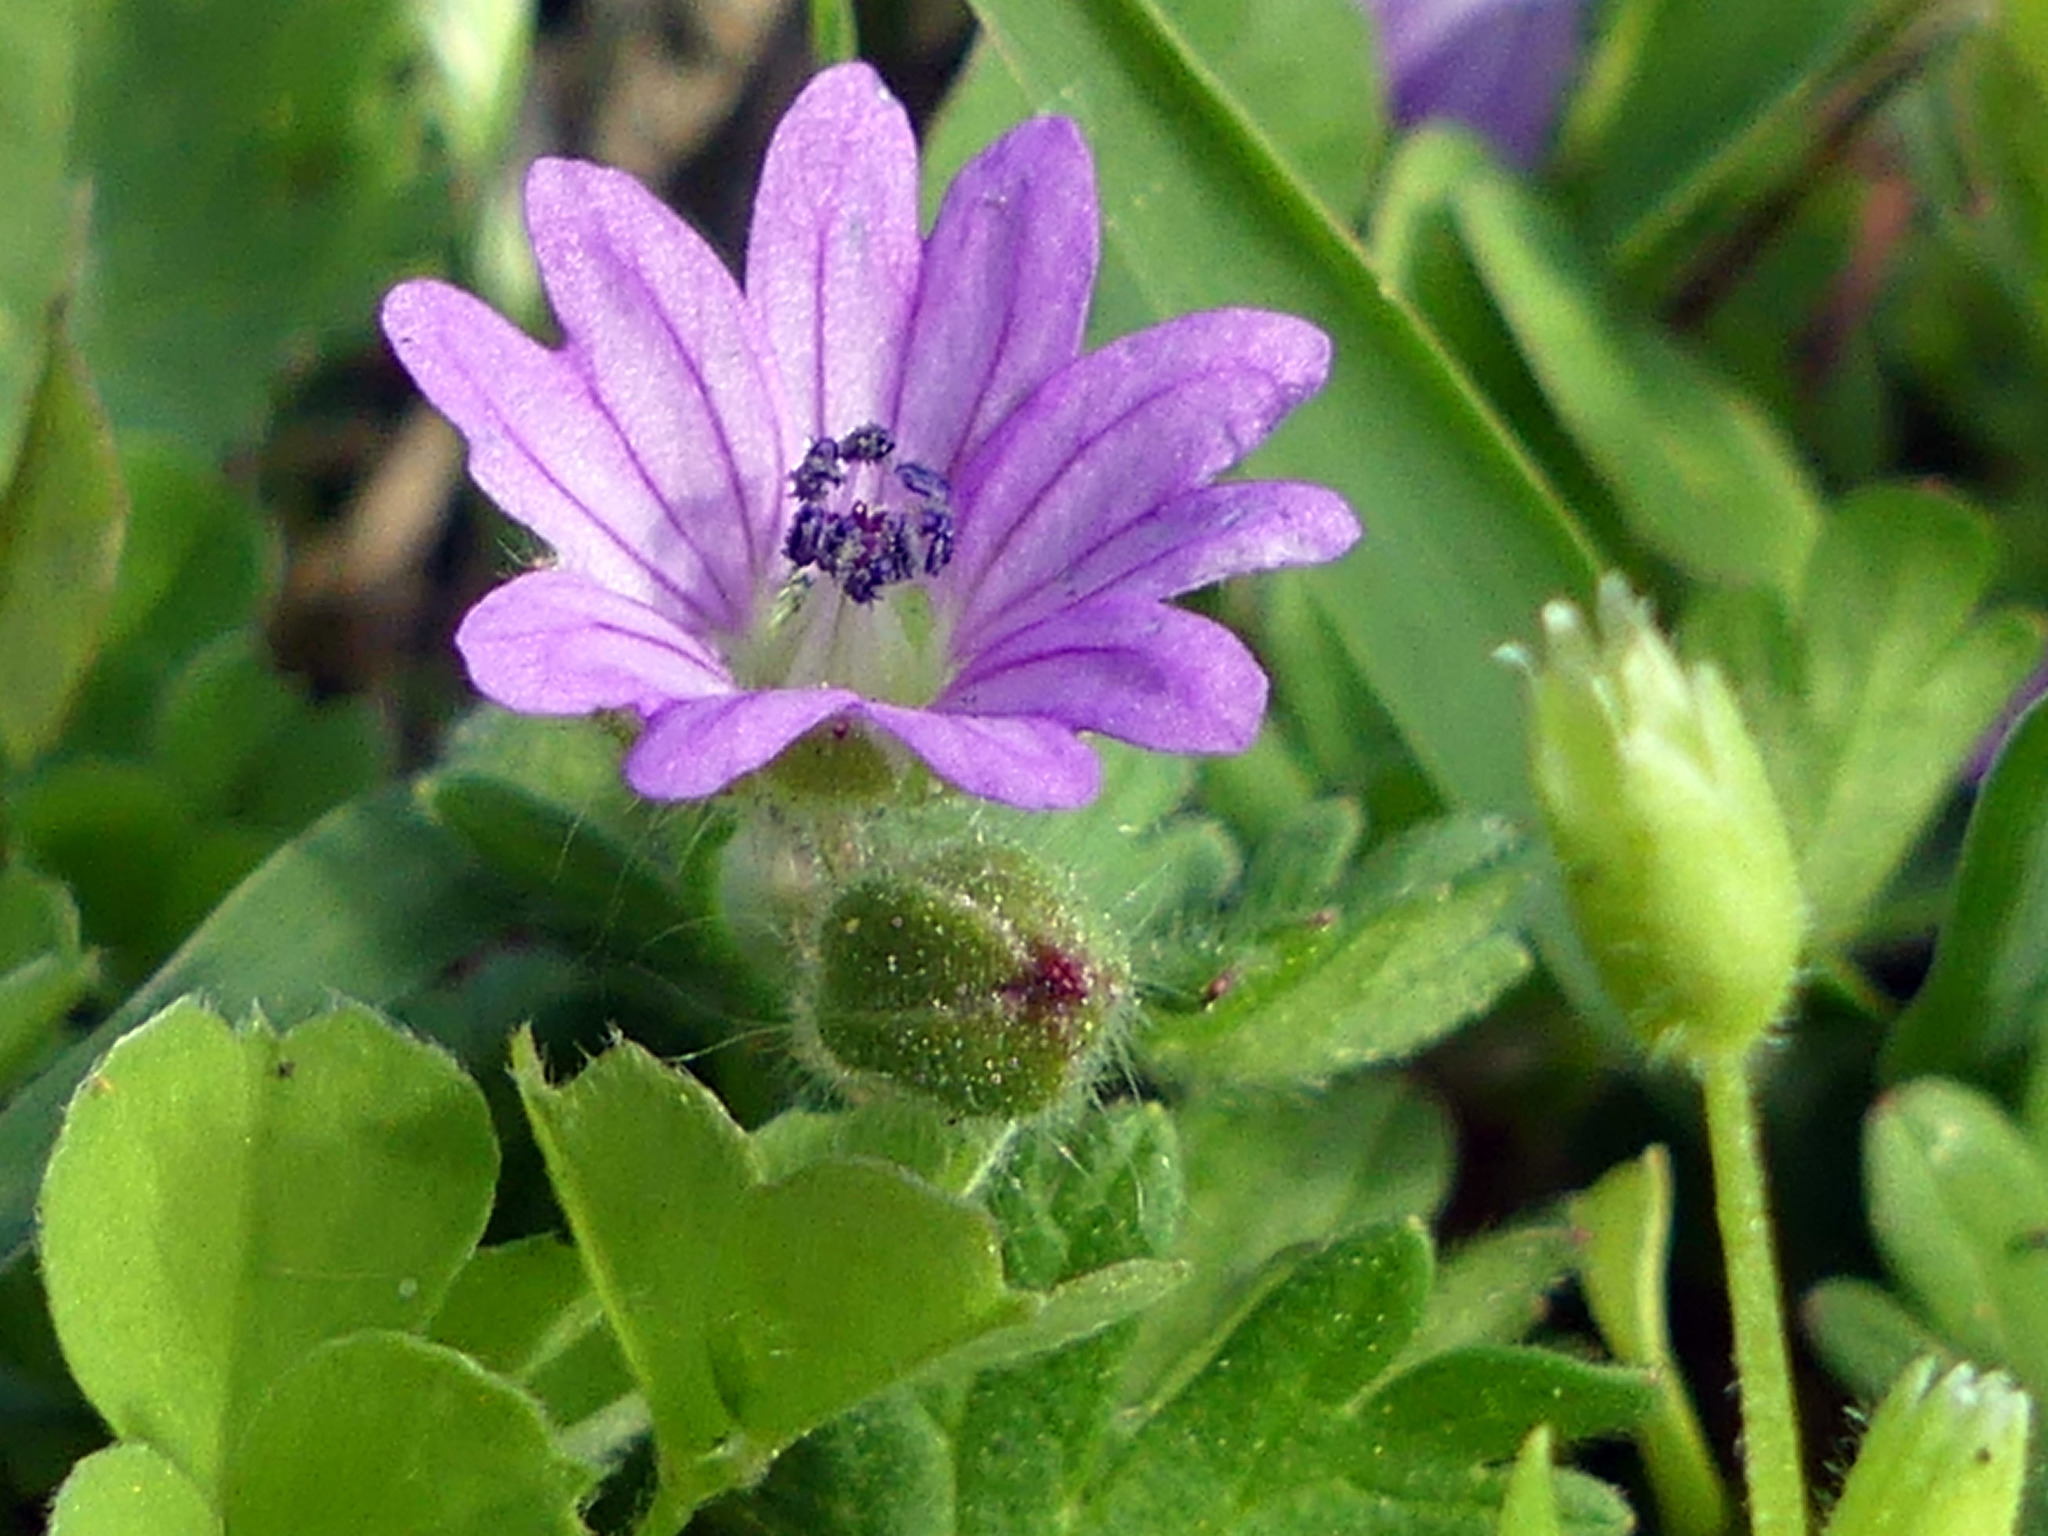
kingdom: Plantae
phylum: Tracheophyta
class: Magnoliopsida
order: Geraniales
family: Geraniaceae
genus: Geranium
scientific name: Geranium molle
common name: Dove's-foot crane's-bill
